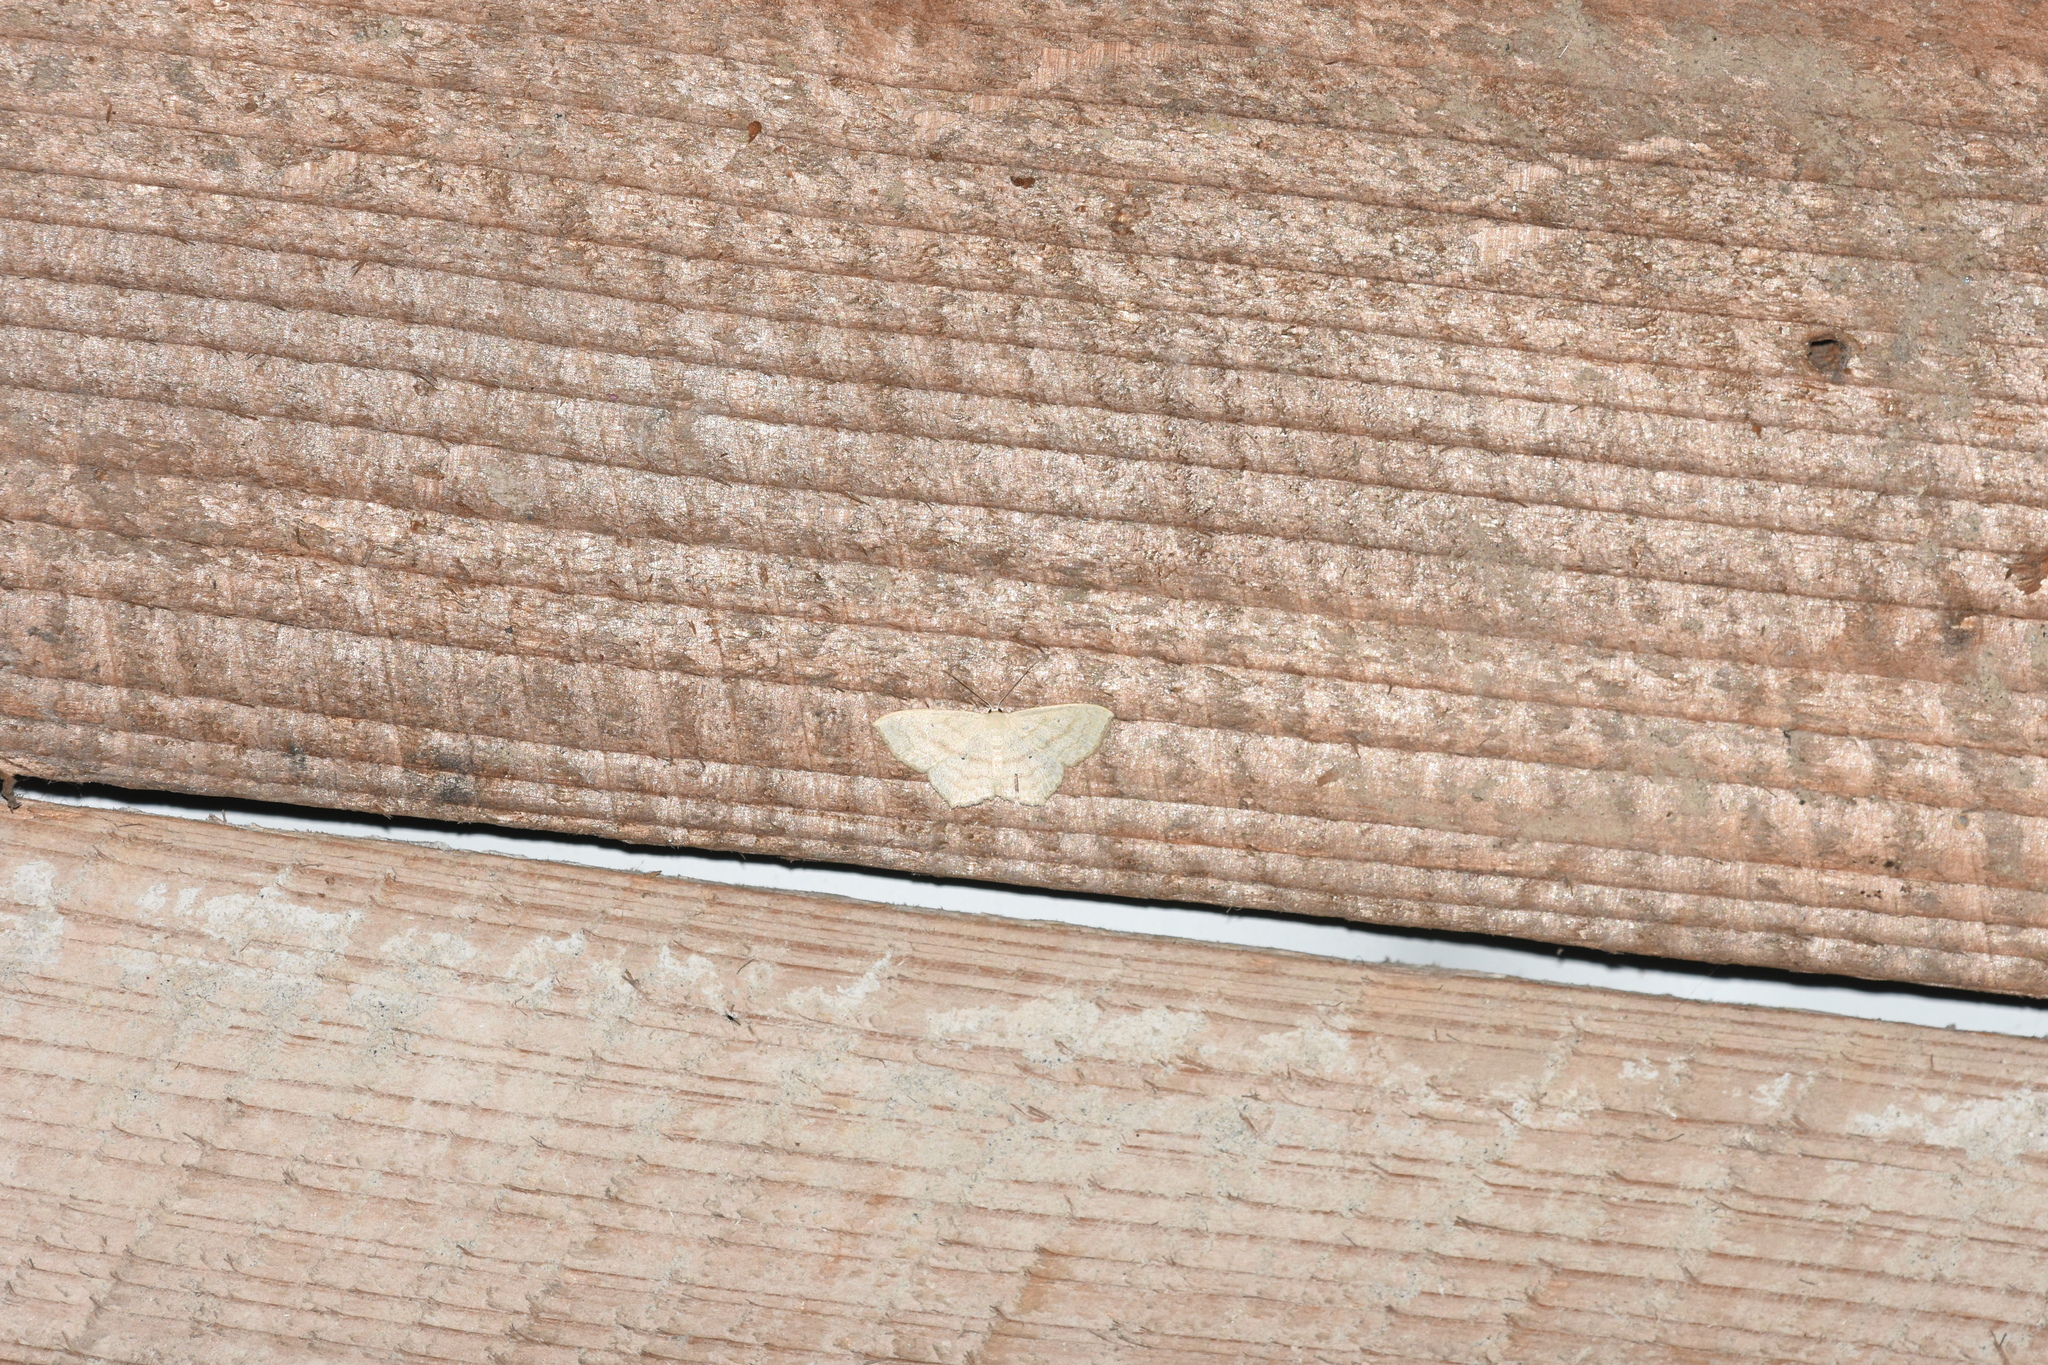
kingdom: Animalia
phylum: Arthropoda
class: Insecta
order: Lepidoptera
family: Geometridae
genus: Scopula
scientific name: Scopula nigropunctata
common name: Sub-angled wave
